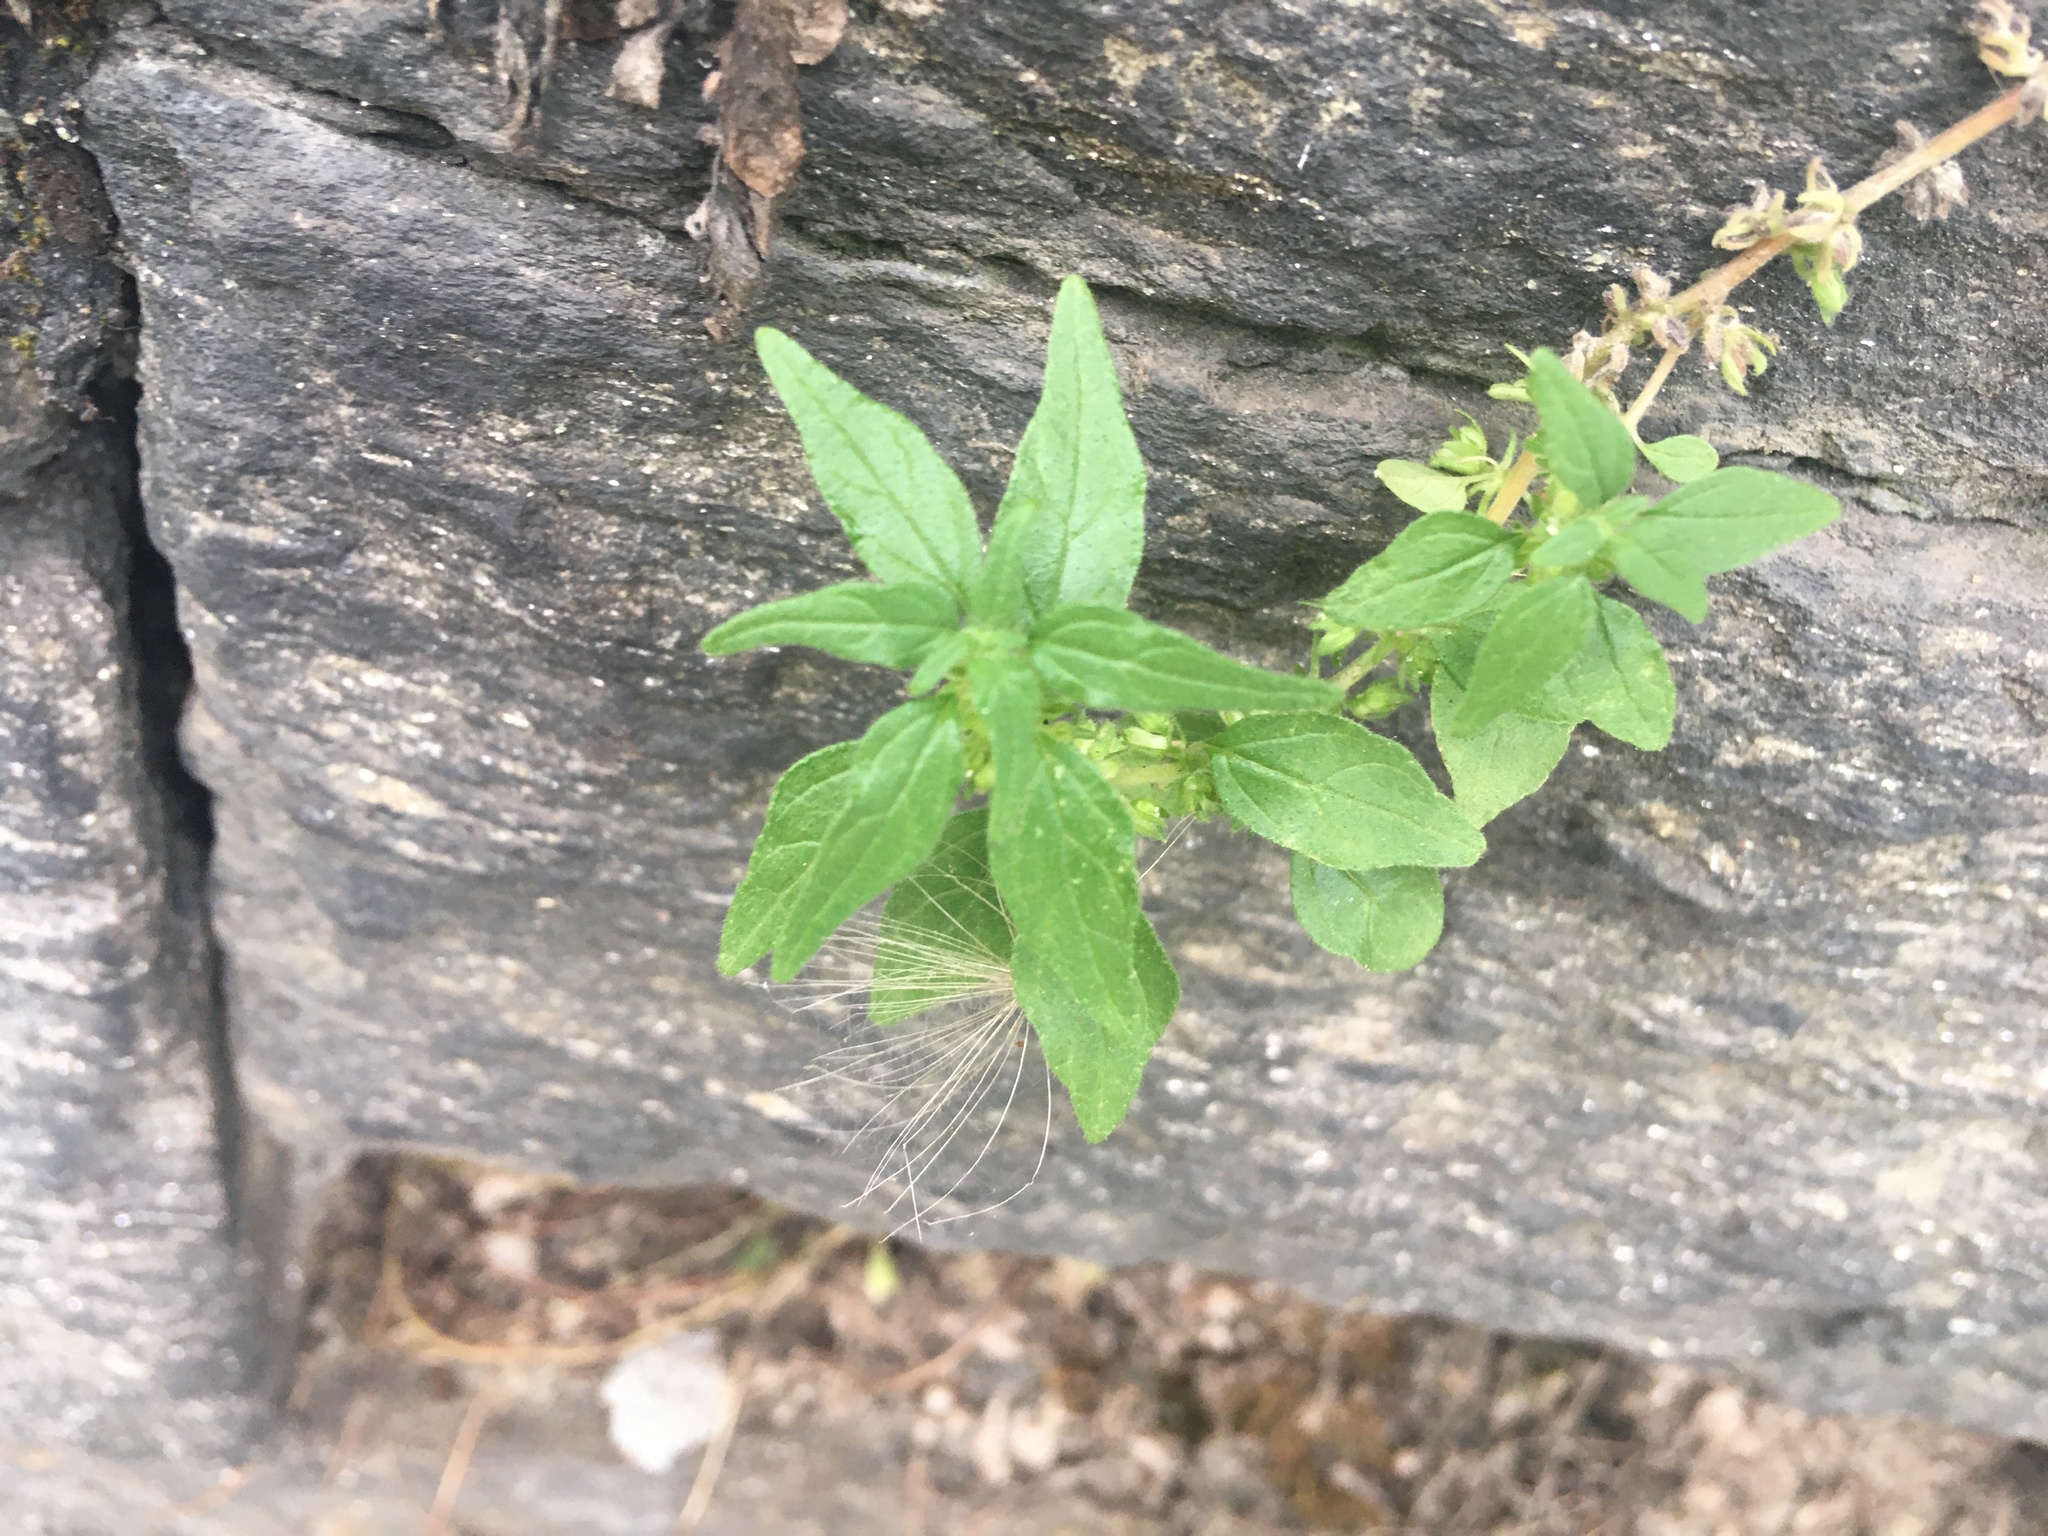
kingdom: Plantae
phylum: Tracheophyta
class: Magnoliopsida
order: Rosales
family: Urticaceae
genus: Parietaria
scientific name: Parietaria pensylvanica
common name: Pennsylvania pellitory
